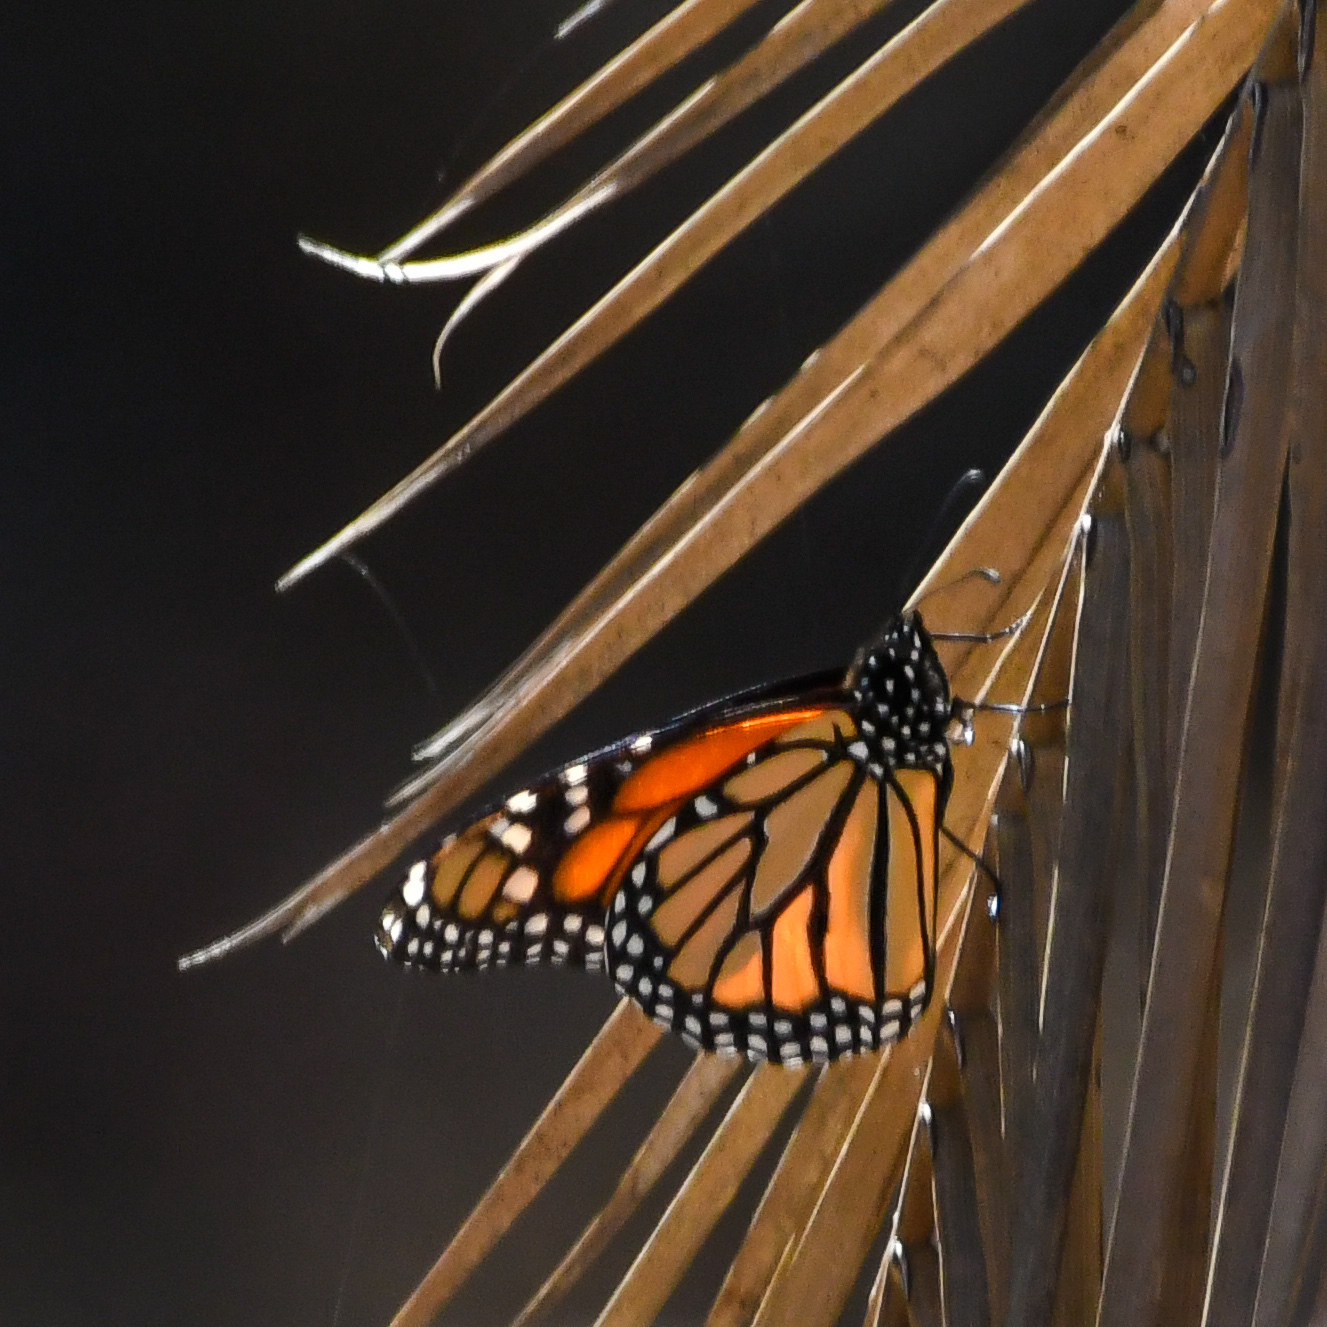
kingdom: Animalia
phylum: Arthropoda
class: Insecta
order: Lepidoptera
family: Nymphalidae
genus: Danaus
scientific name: Danaus plexippus
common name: Monarch
